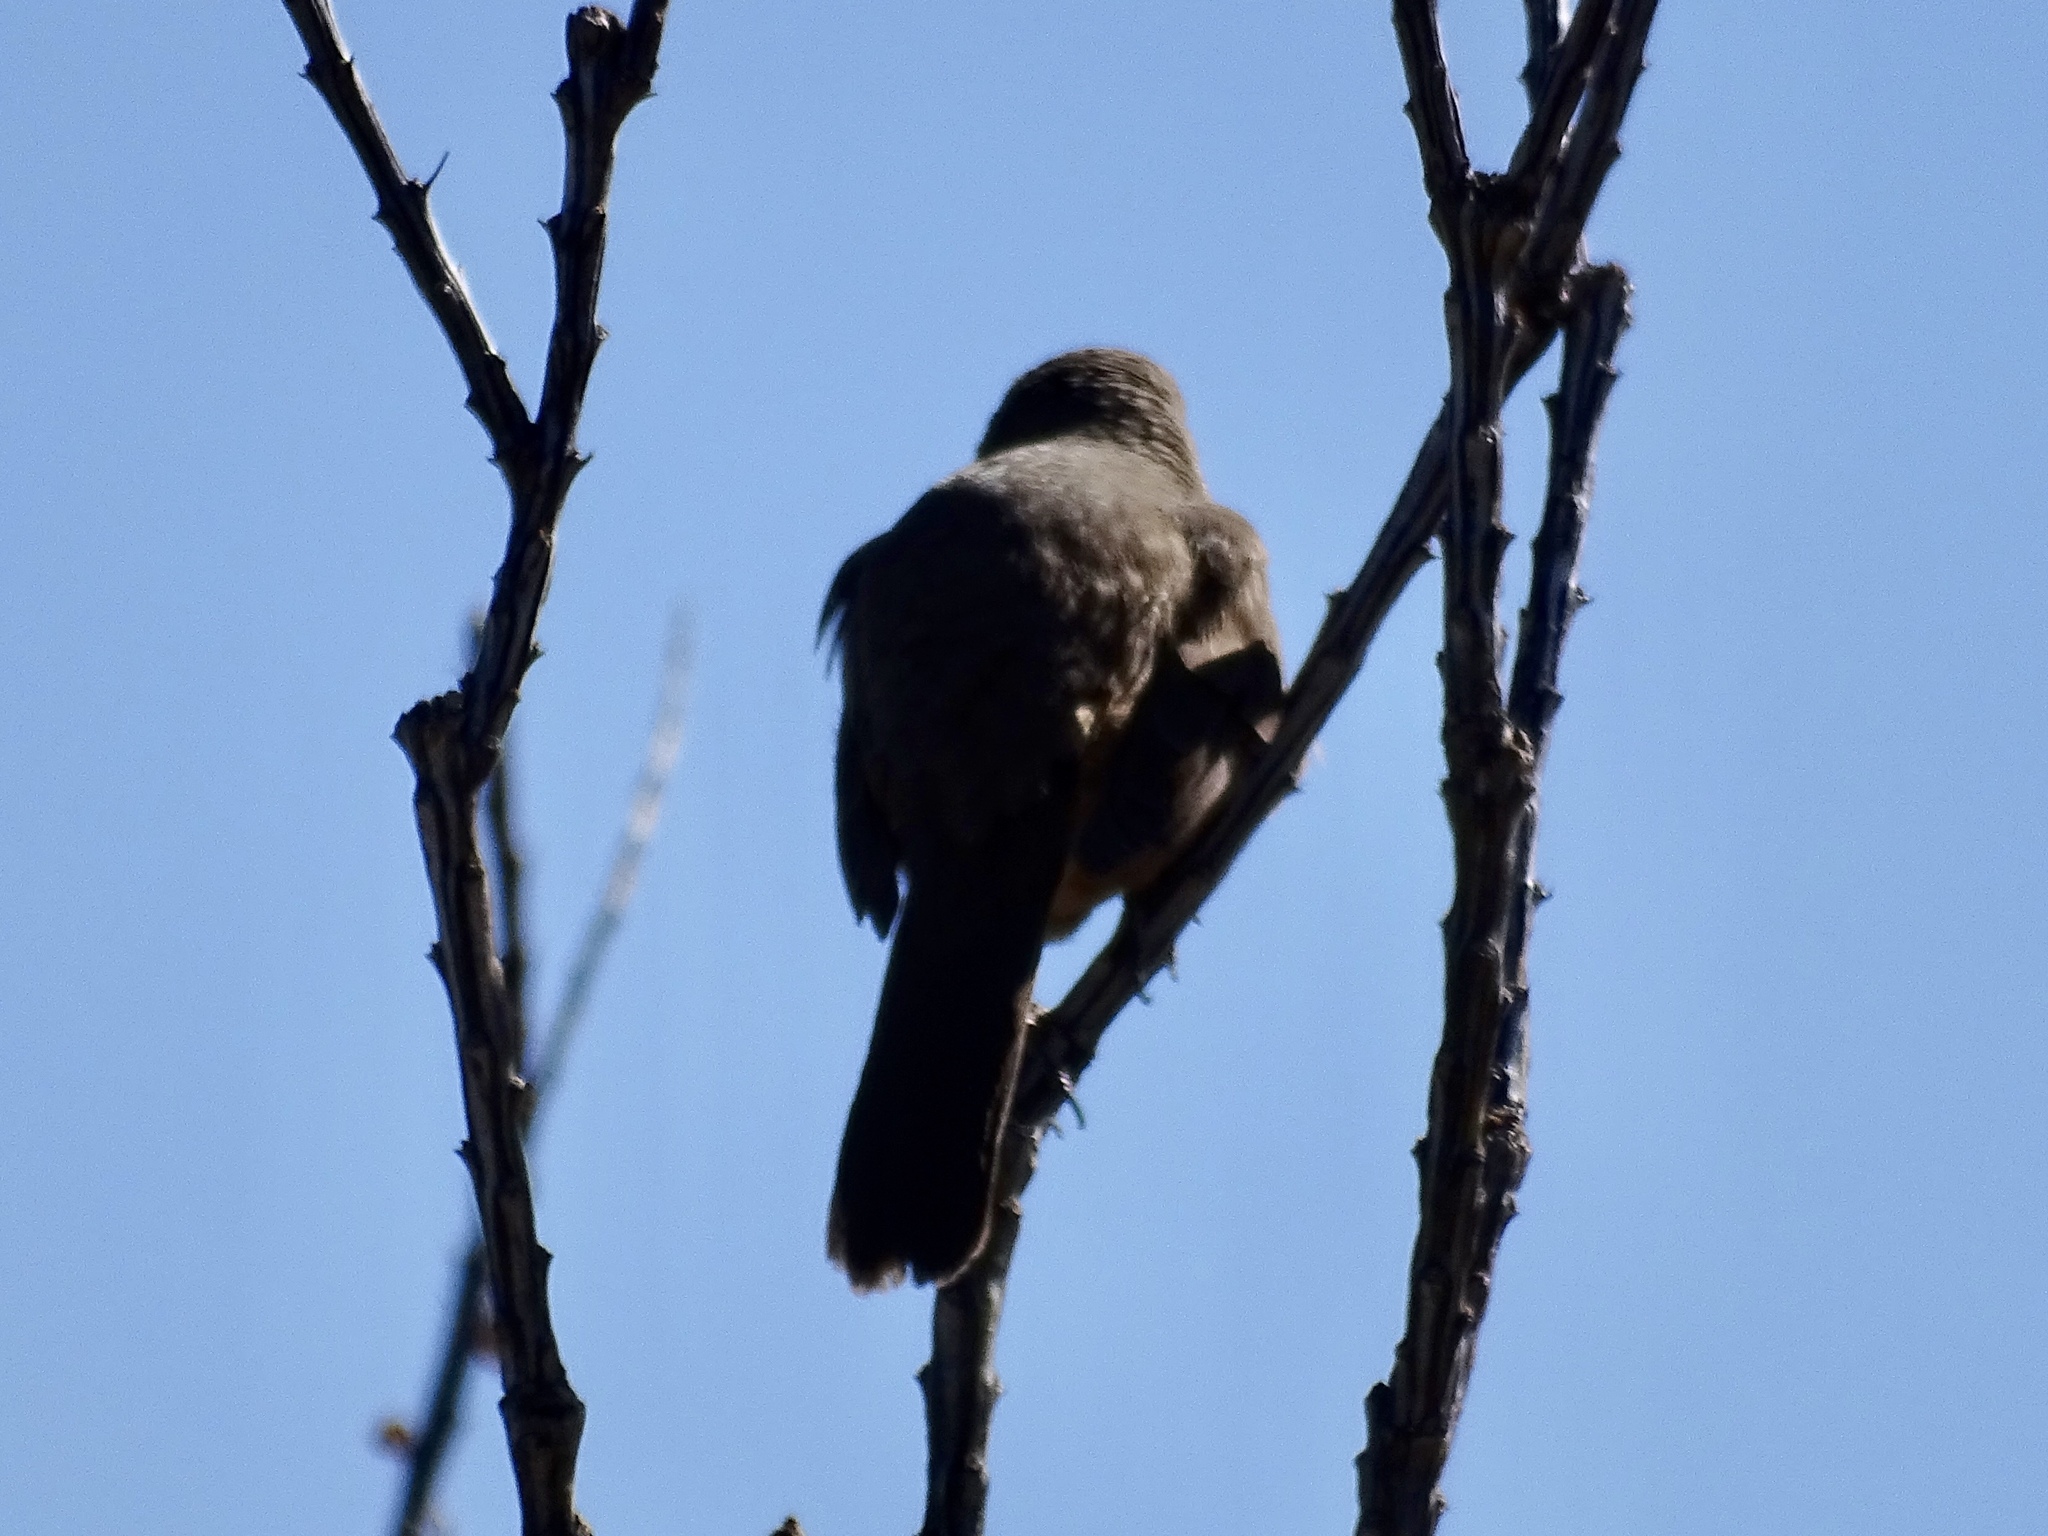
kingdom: Animalia
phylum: Chordata
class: Aves
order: Passeriformes
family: Mimidae
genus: Toxostoma
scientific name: Toxostoma curvirostre
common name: Curve-billed thrasher
